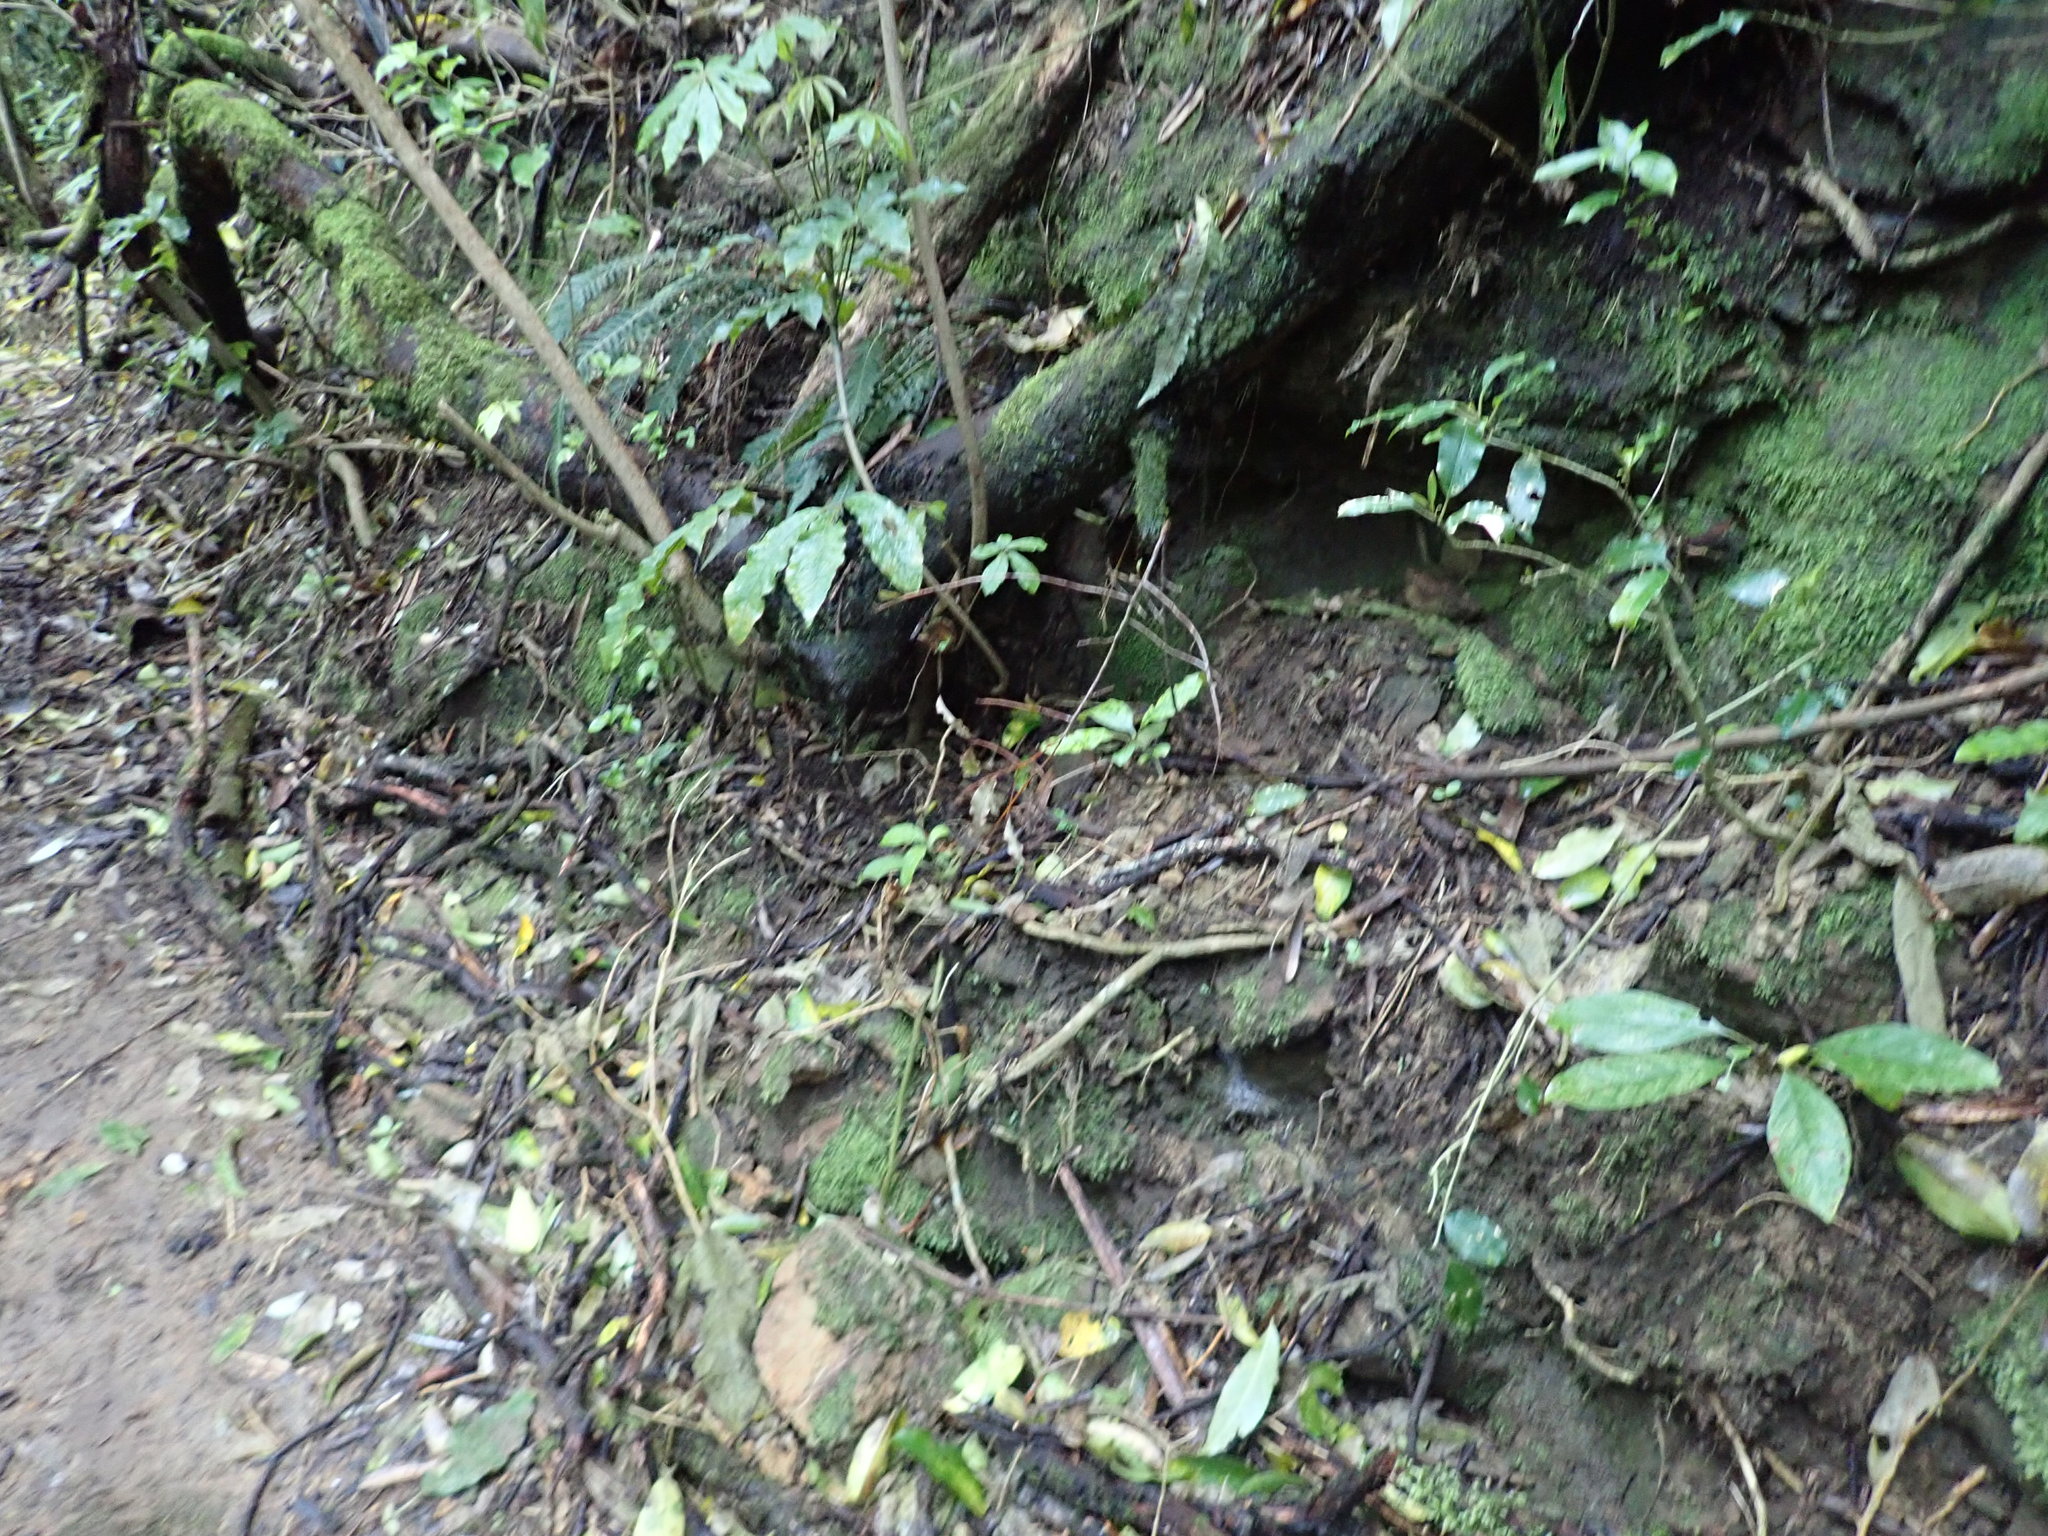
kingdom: Plantae
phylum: Tracheophyta
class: Magnoliopsida
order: Apiales
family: Araliaceae
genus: Schefflera
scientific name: Schefflera digitata
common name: Pate
